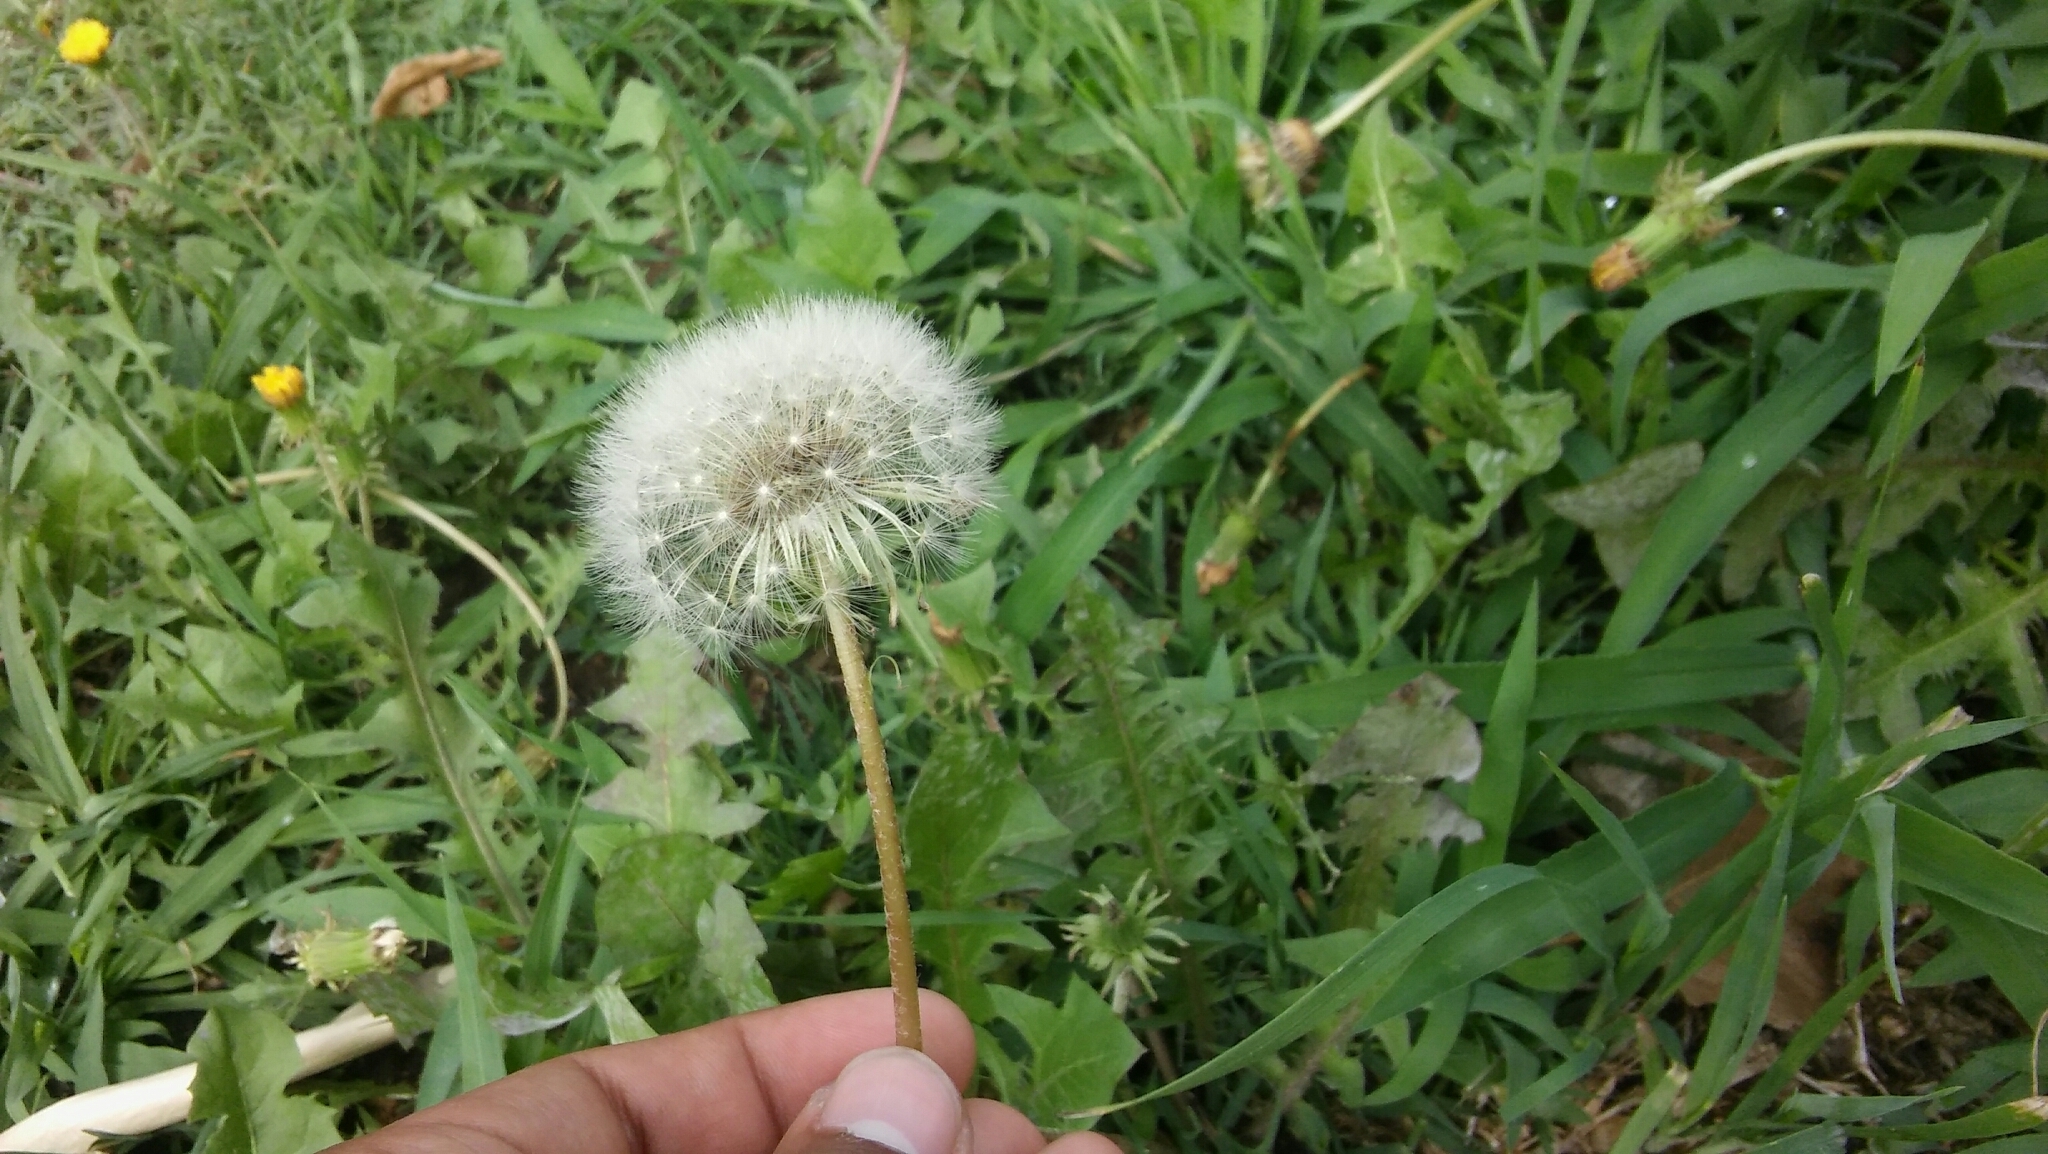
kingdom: Plantae
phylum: Tracheophyta
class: Magnoliopsida
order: Asterales
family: Asteraceae
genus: Taraxacum
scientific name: Taraxacum officinale
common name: Common dandelion
